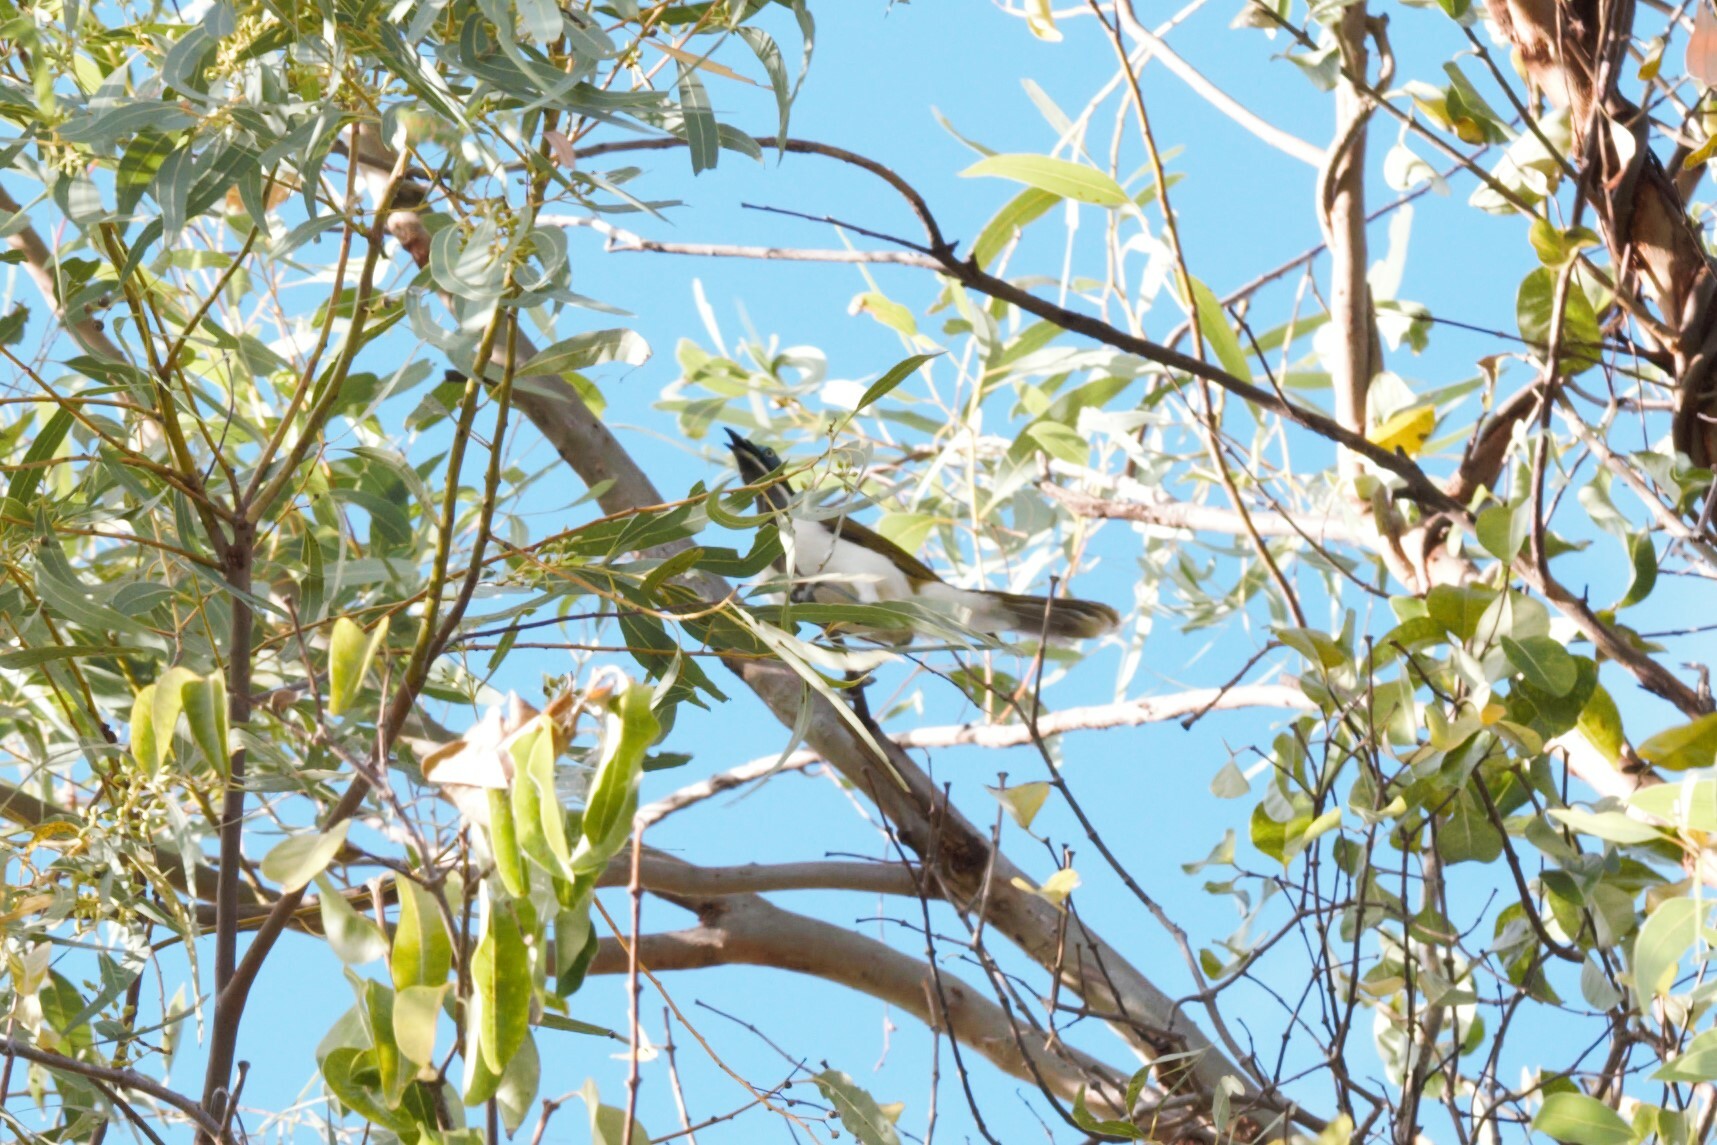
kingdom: Animalia
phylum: Chordata
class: Aves
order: Passeriformes
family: Meliphagidae
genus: Entomyzon
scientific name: Entomyzon cyanotis
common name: Blue-faced honeyeater
